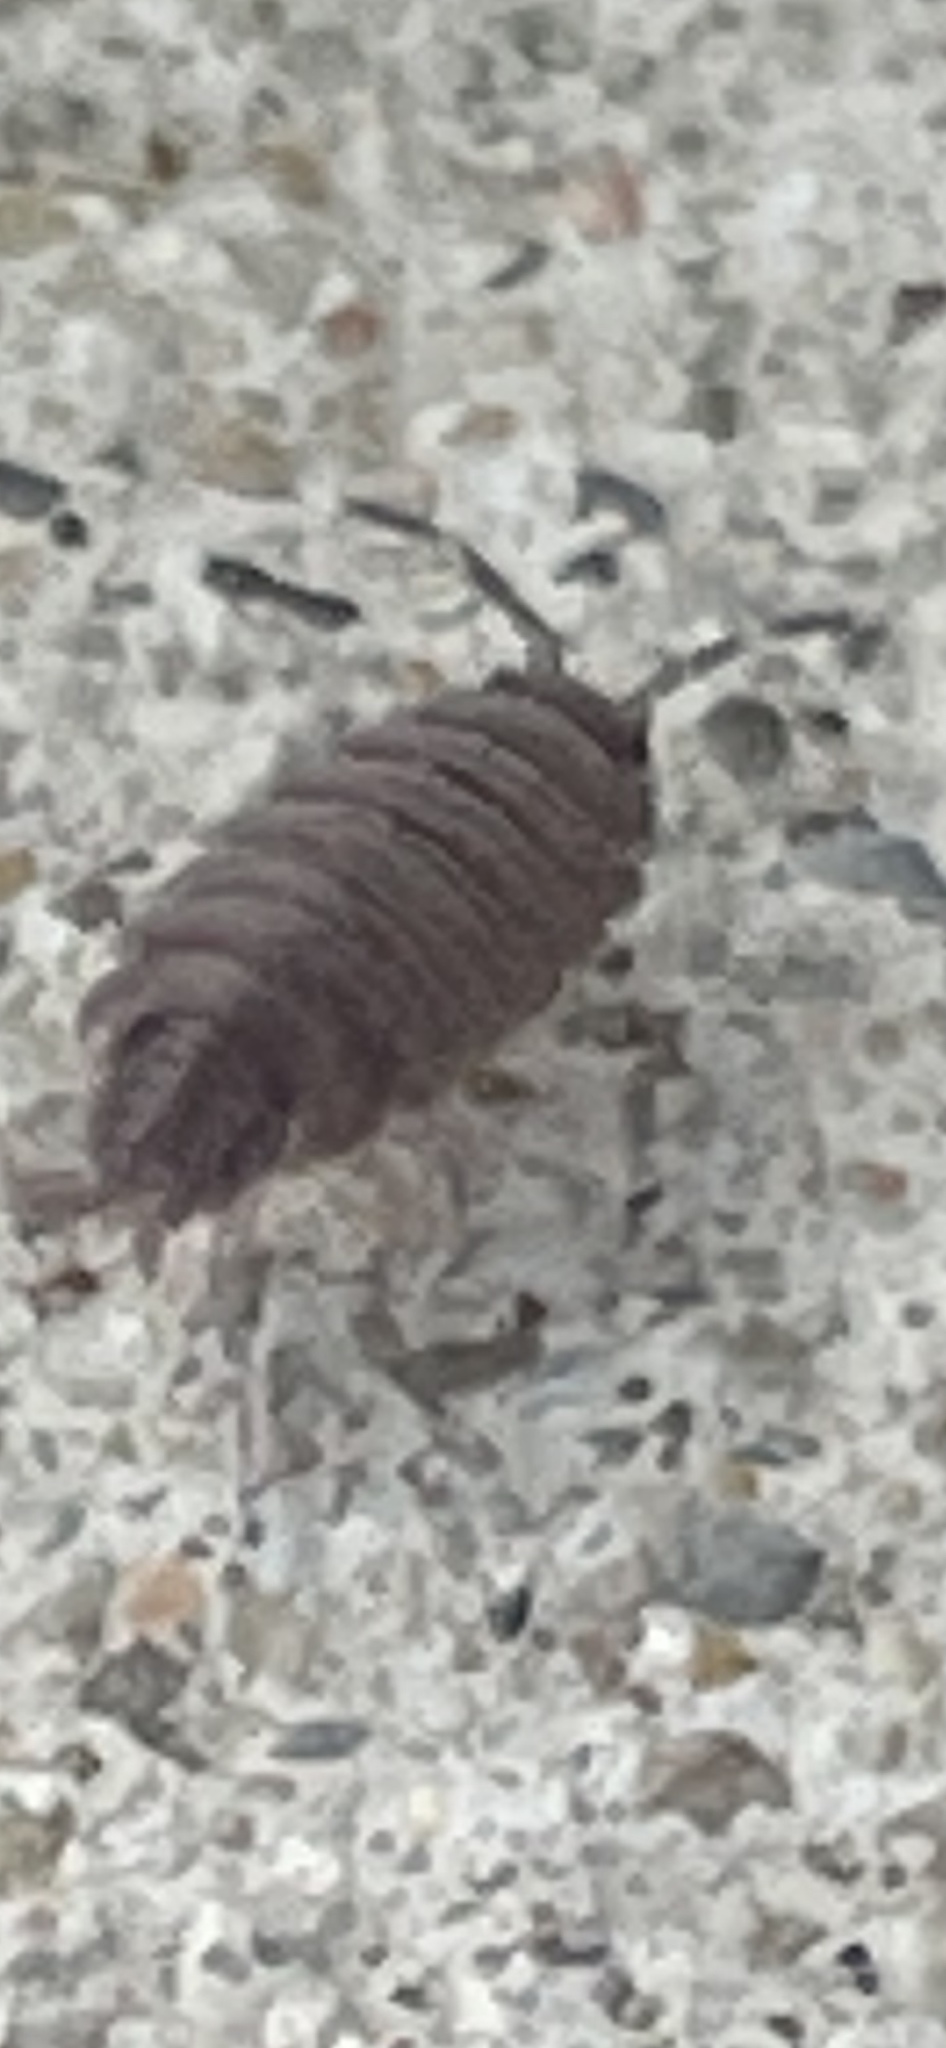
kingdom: Animalia
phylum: Arthropoda
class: Malacostraca
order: Isopoda
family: Porcellionidae
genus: Porcellionides
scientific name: Porcellionides pruinosus
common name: Plum woodlouse
